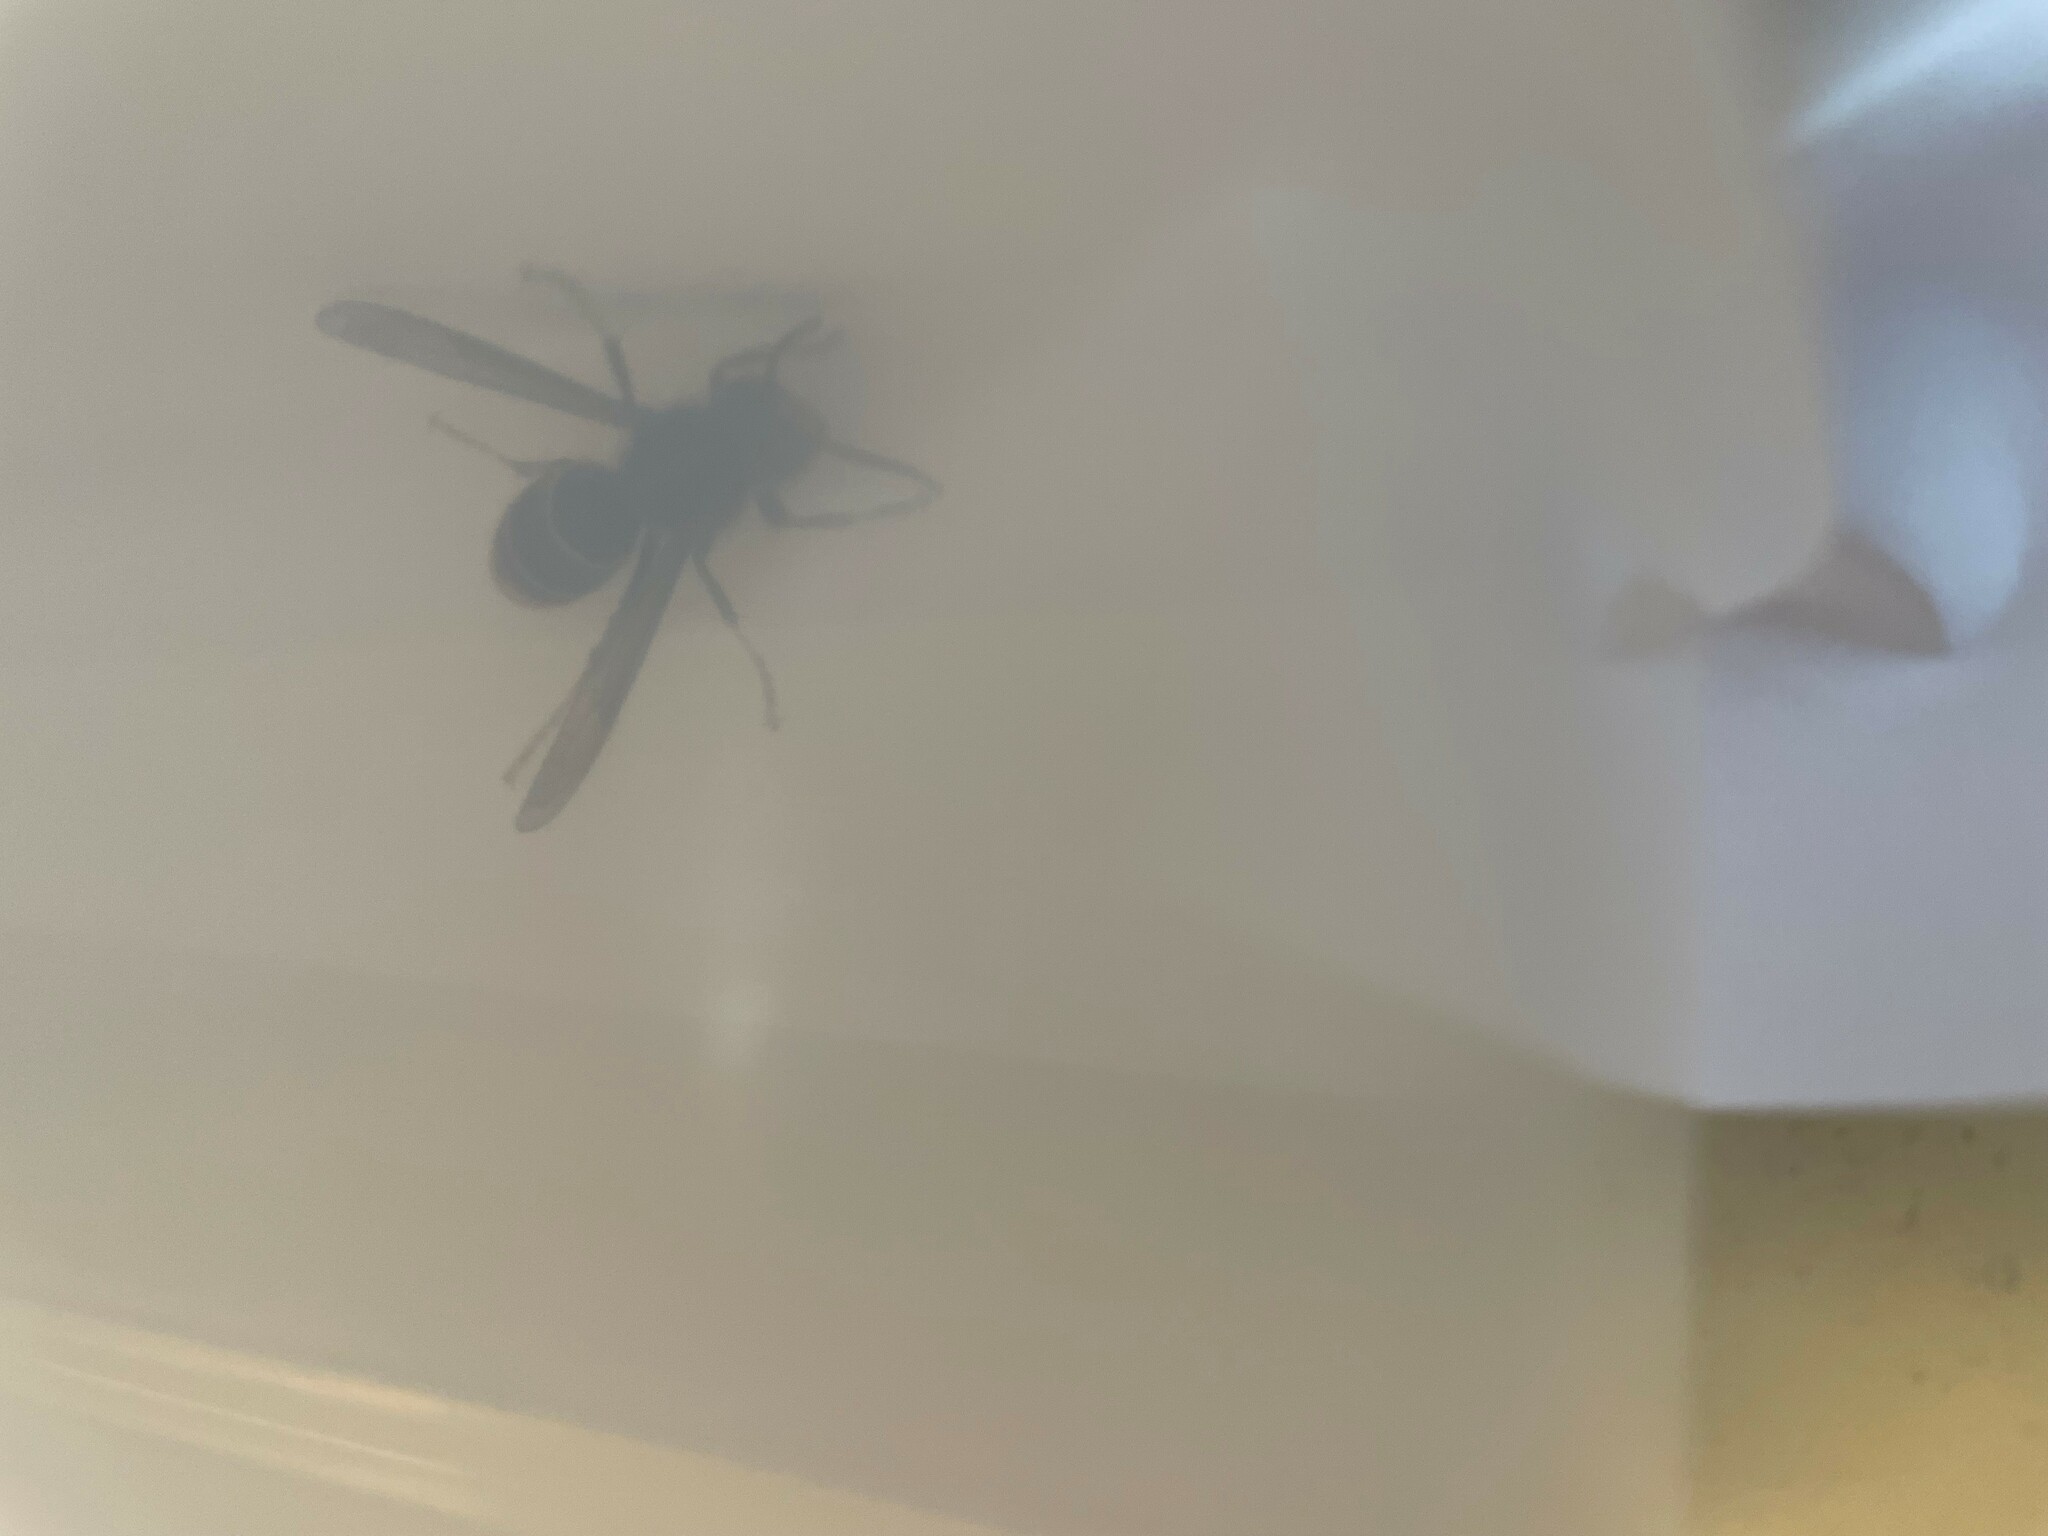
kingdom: Animalia
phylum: Arthropoda
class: Insecta
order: Hymenoptera
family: Vespidae
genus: Vespa
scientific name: Vespa velutina
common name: Asian hornet
